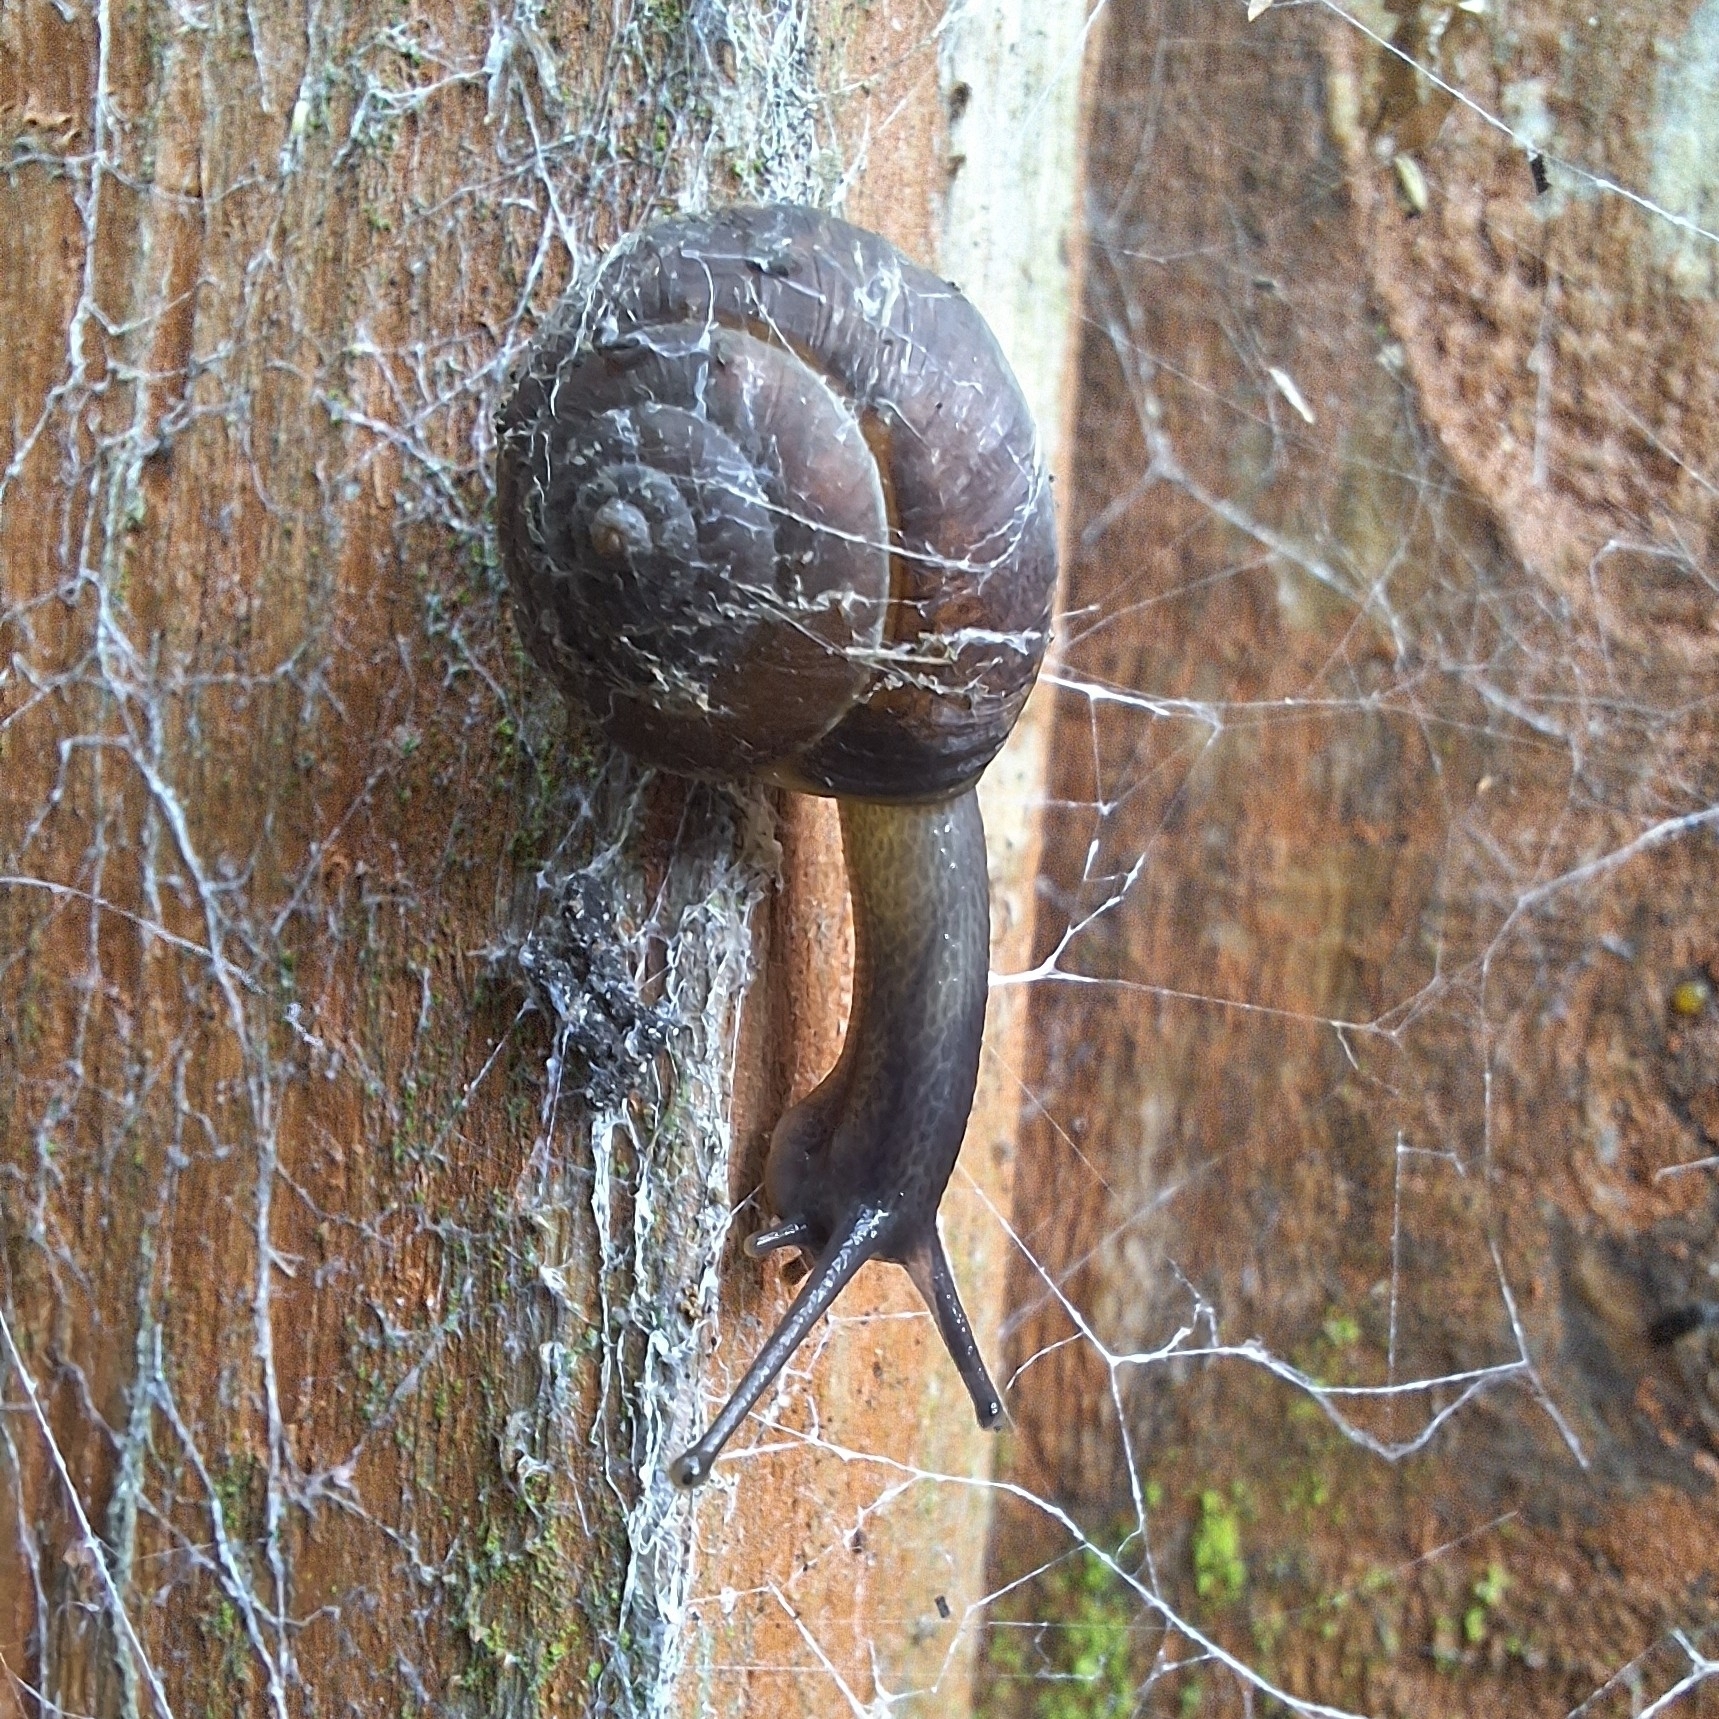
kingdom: Animalia
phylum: Mollusca
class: Gastropoda
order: Stylommatophora
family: Hygromiidae
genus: Hygromia
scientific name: Hygromia cinctella
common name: Girdled snail
